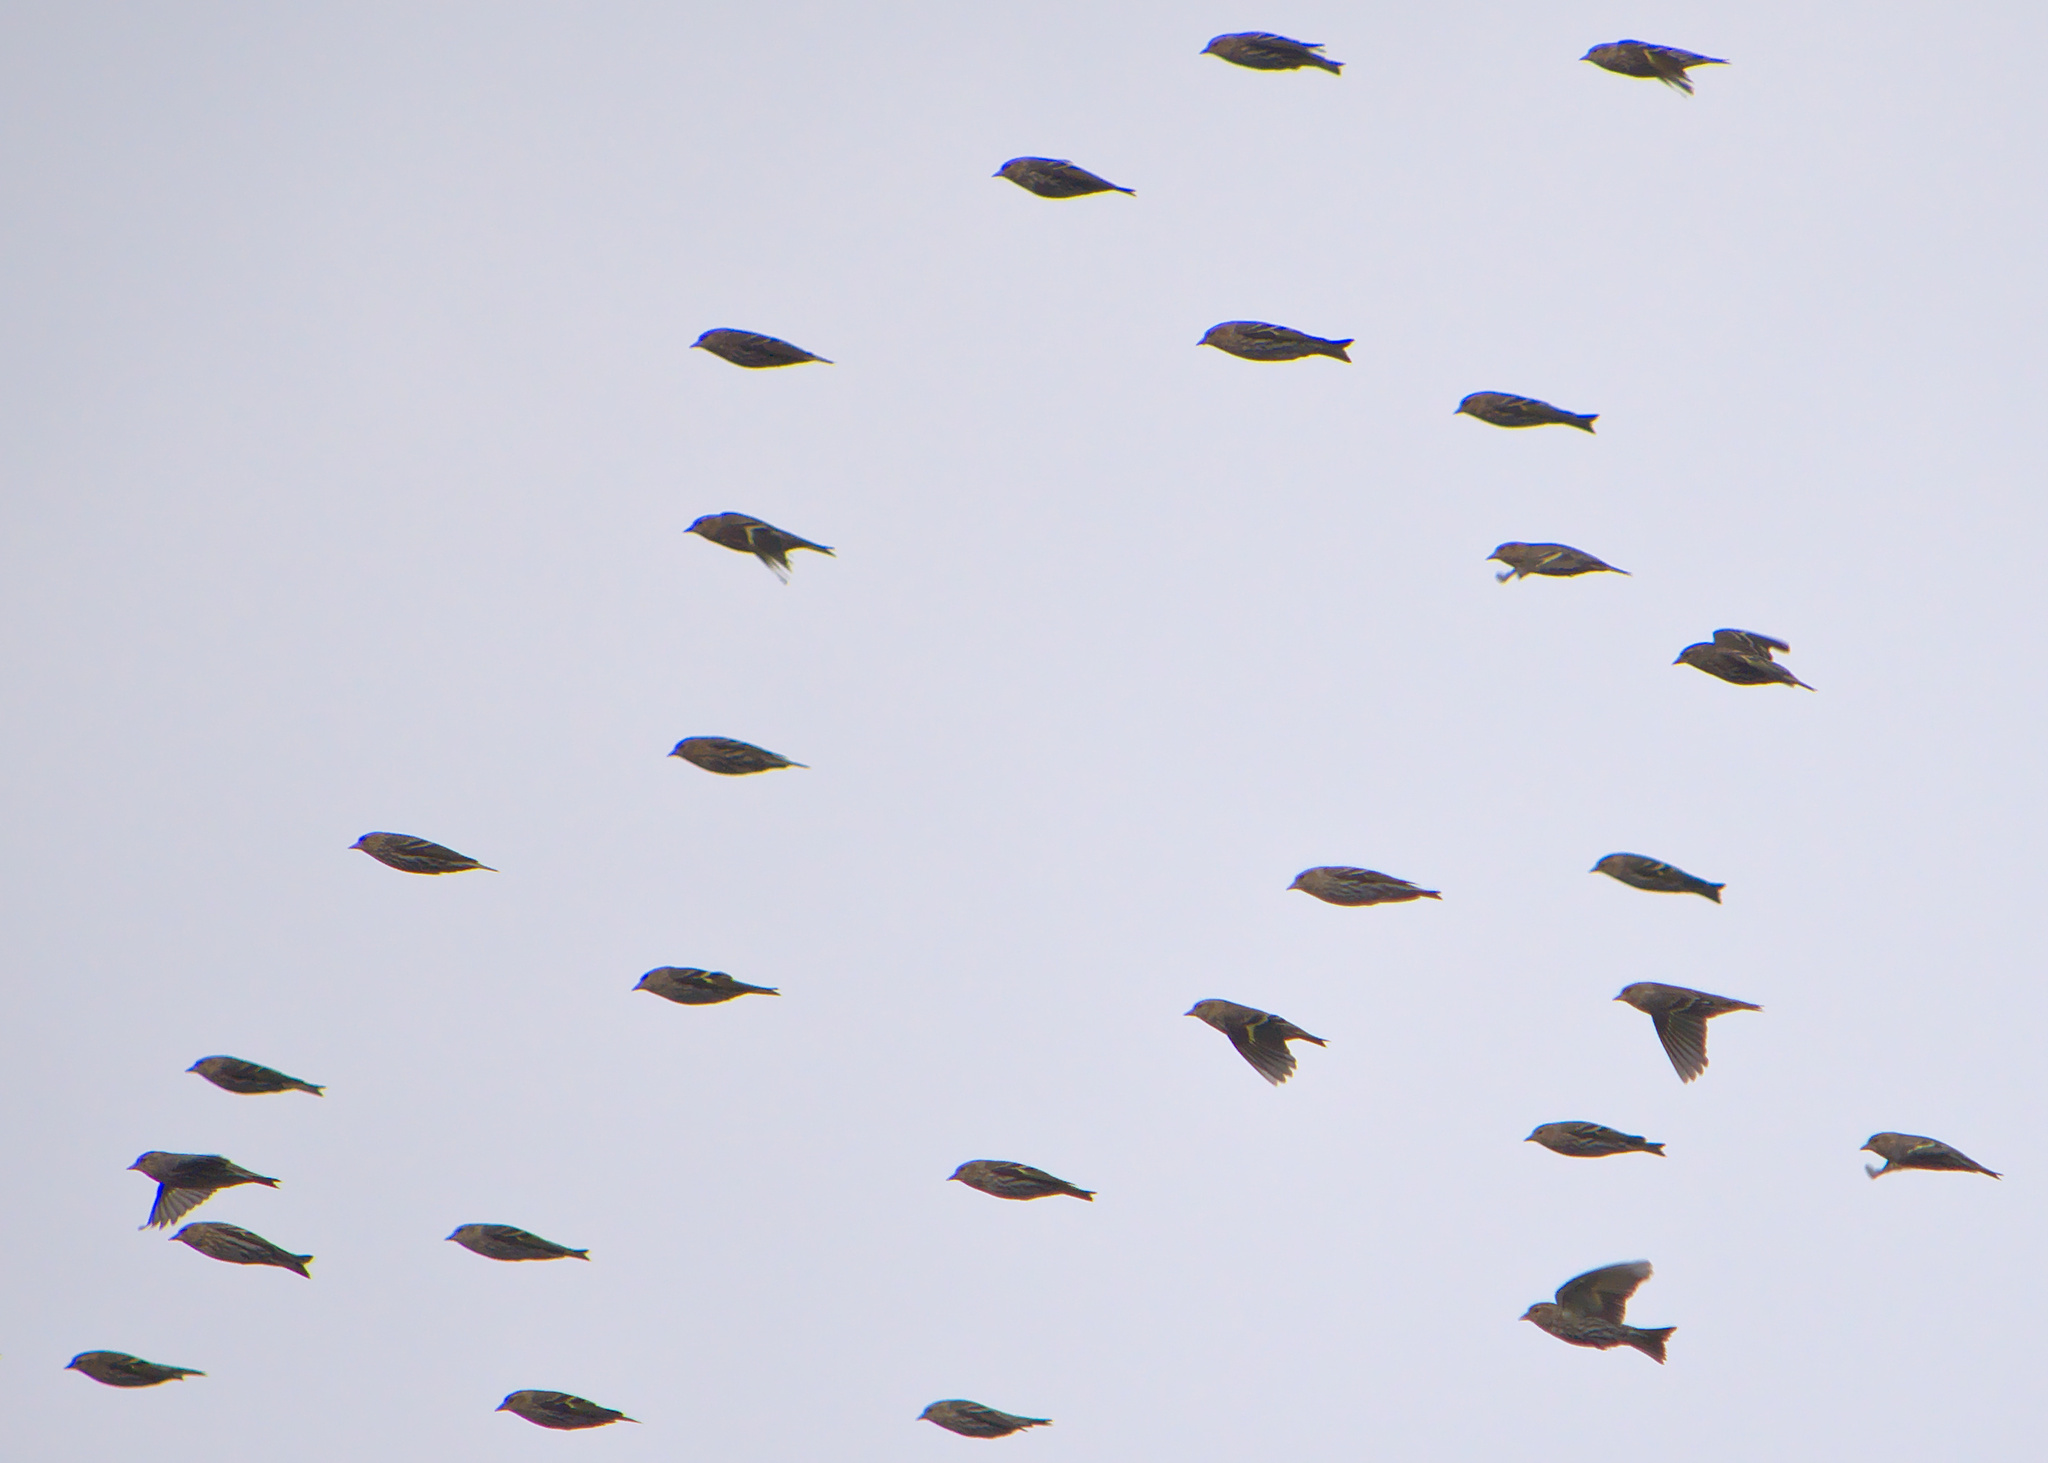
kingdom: Animalia
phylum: Chordata
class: Aves
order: Passeriformes
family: Fringillidae
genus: Spinus
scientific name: Spinus pinus
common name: Pine siskin
